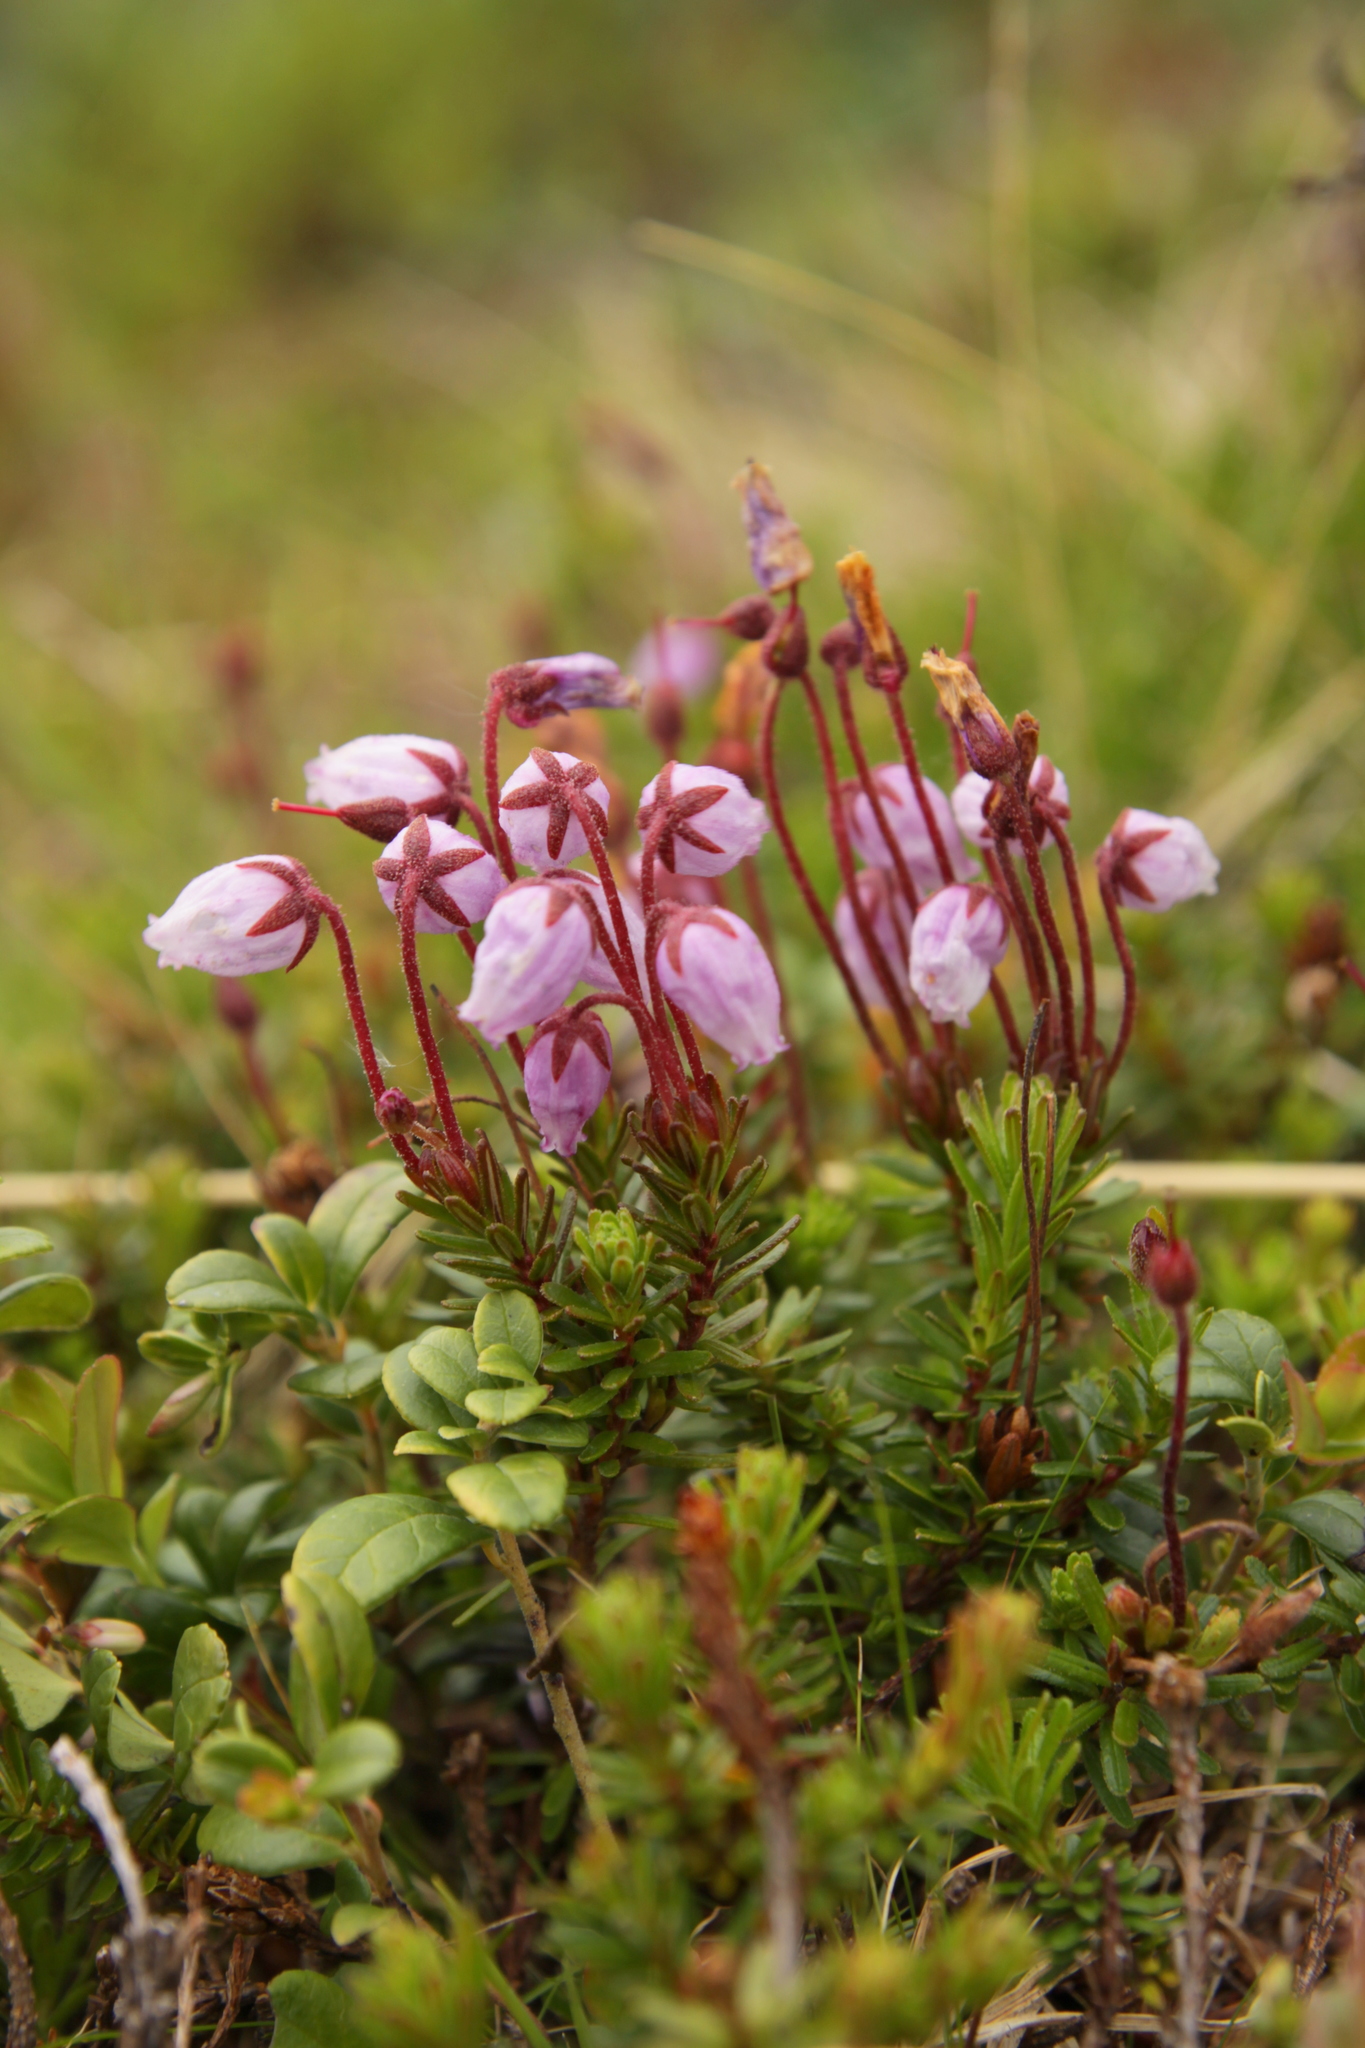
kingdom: Plantae
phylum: Tracheophyta
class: Magnoliopsida
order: Ericales
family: Ericaceae
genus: Phyllodoce
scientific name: Phyllodoce caerulea
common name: Blue heath
